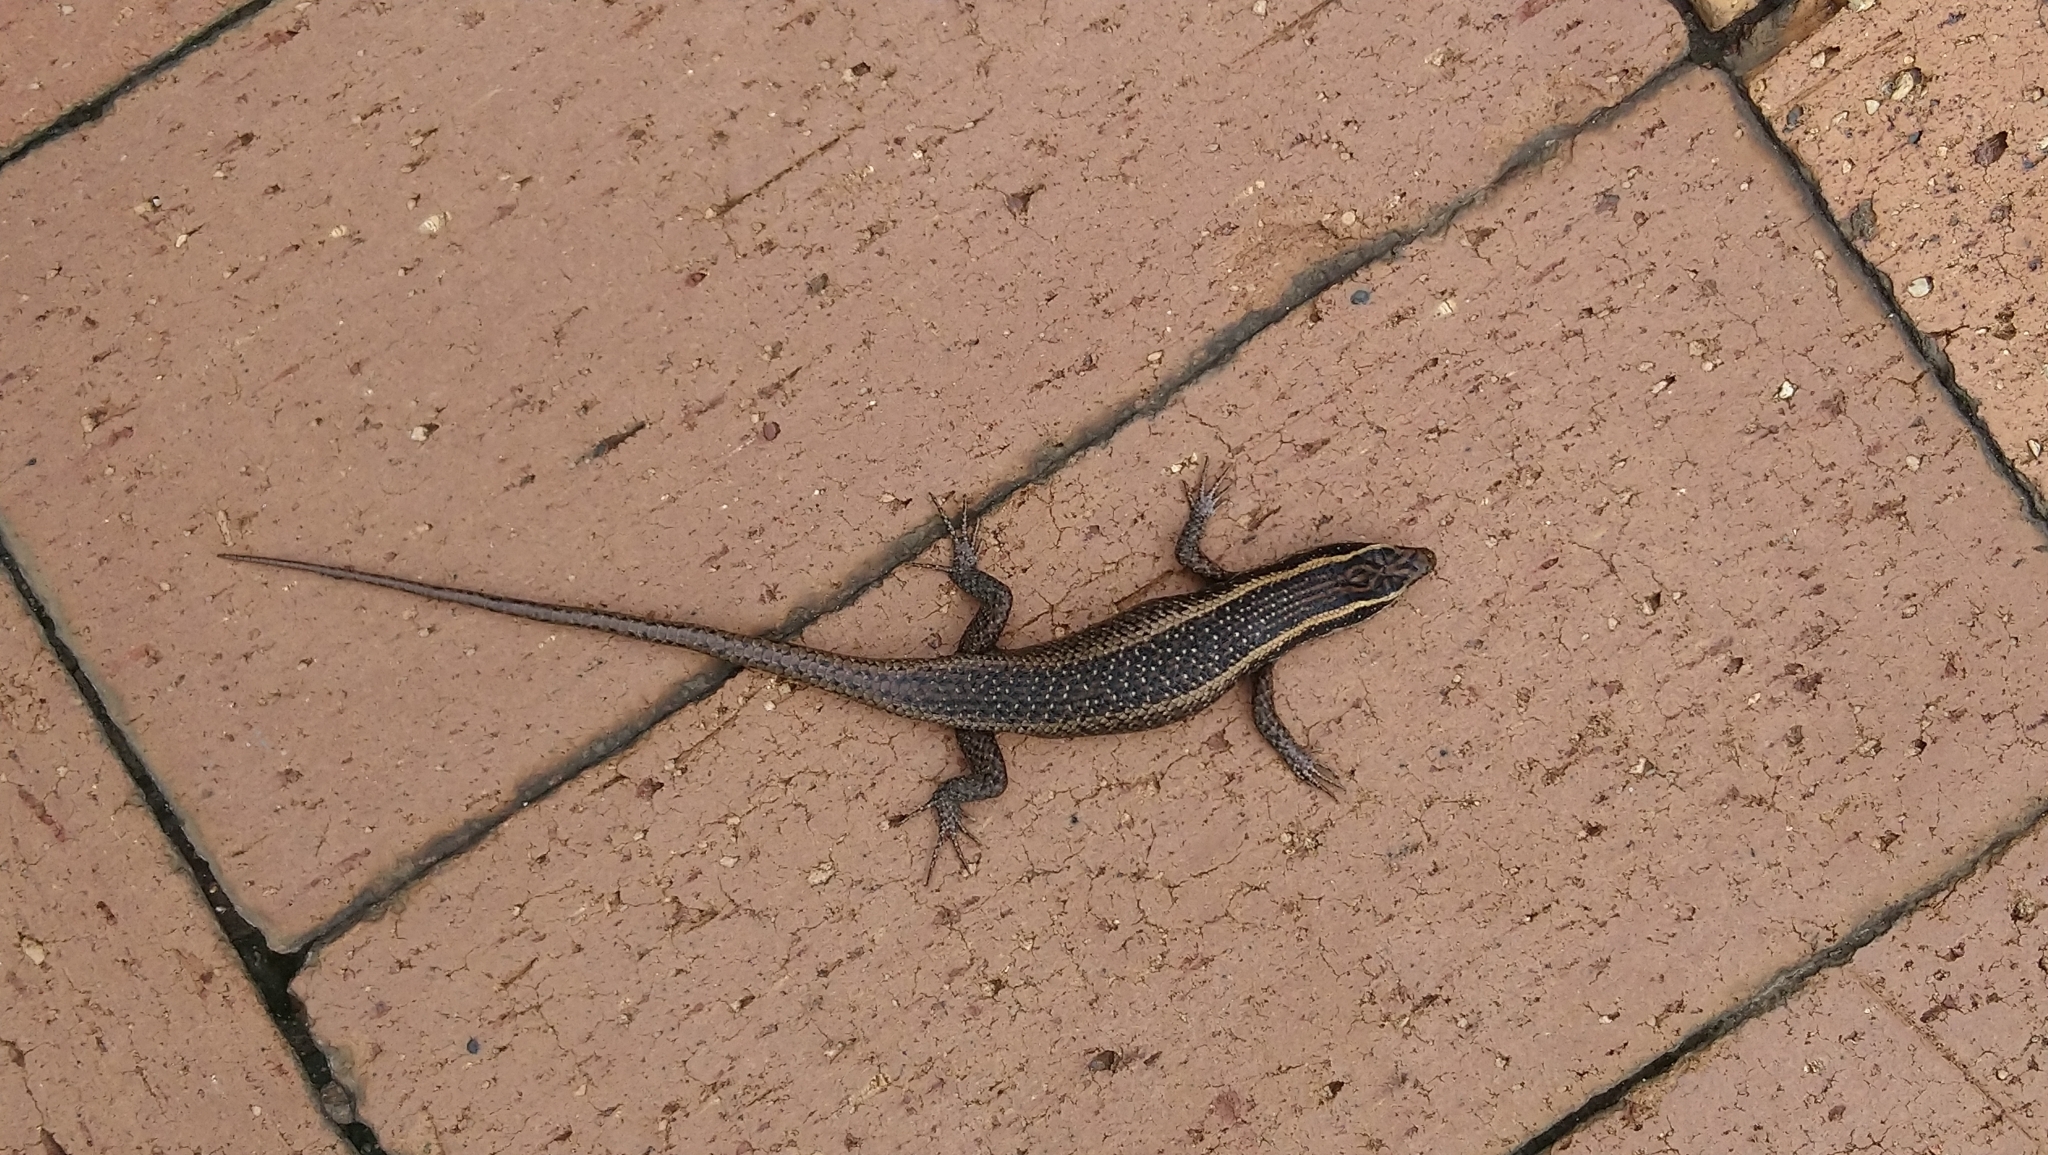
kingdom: Animalia
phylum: Chordata
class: Squamata
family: Scincidae
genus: Trachylepis
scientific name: Trachylepis punctatissima
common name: Montane speckled skink
